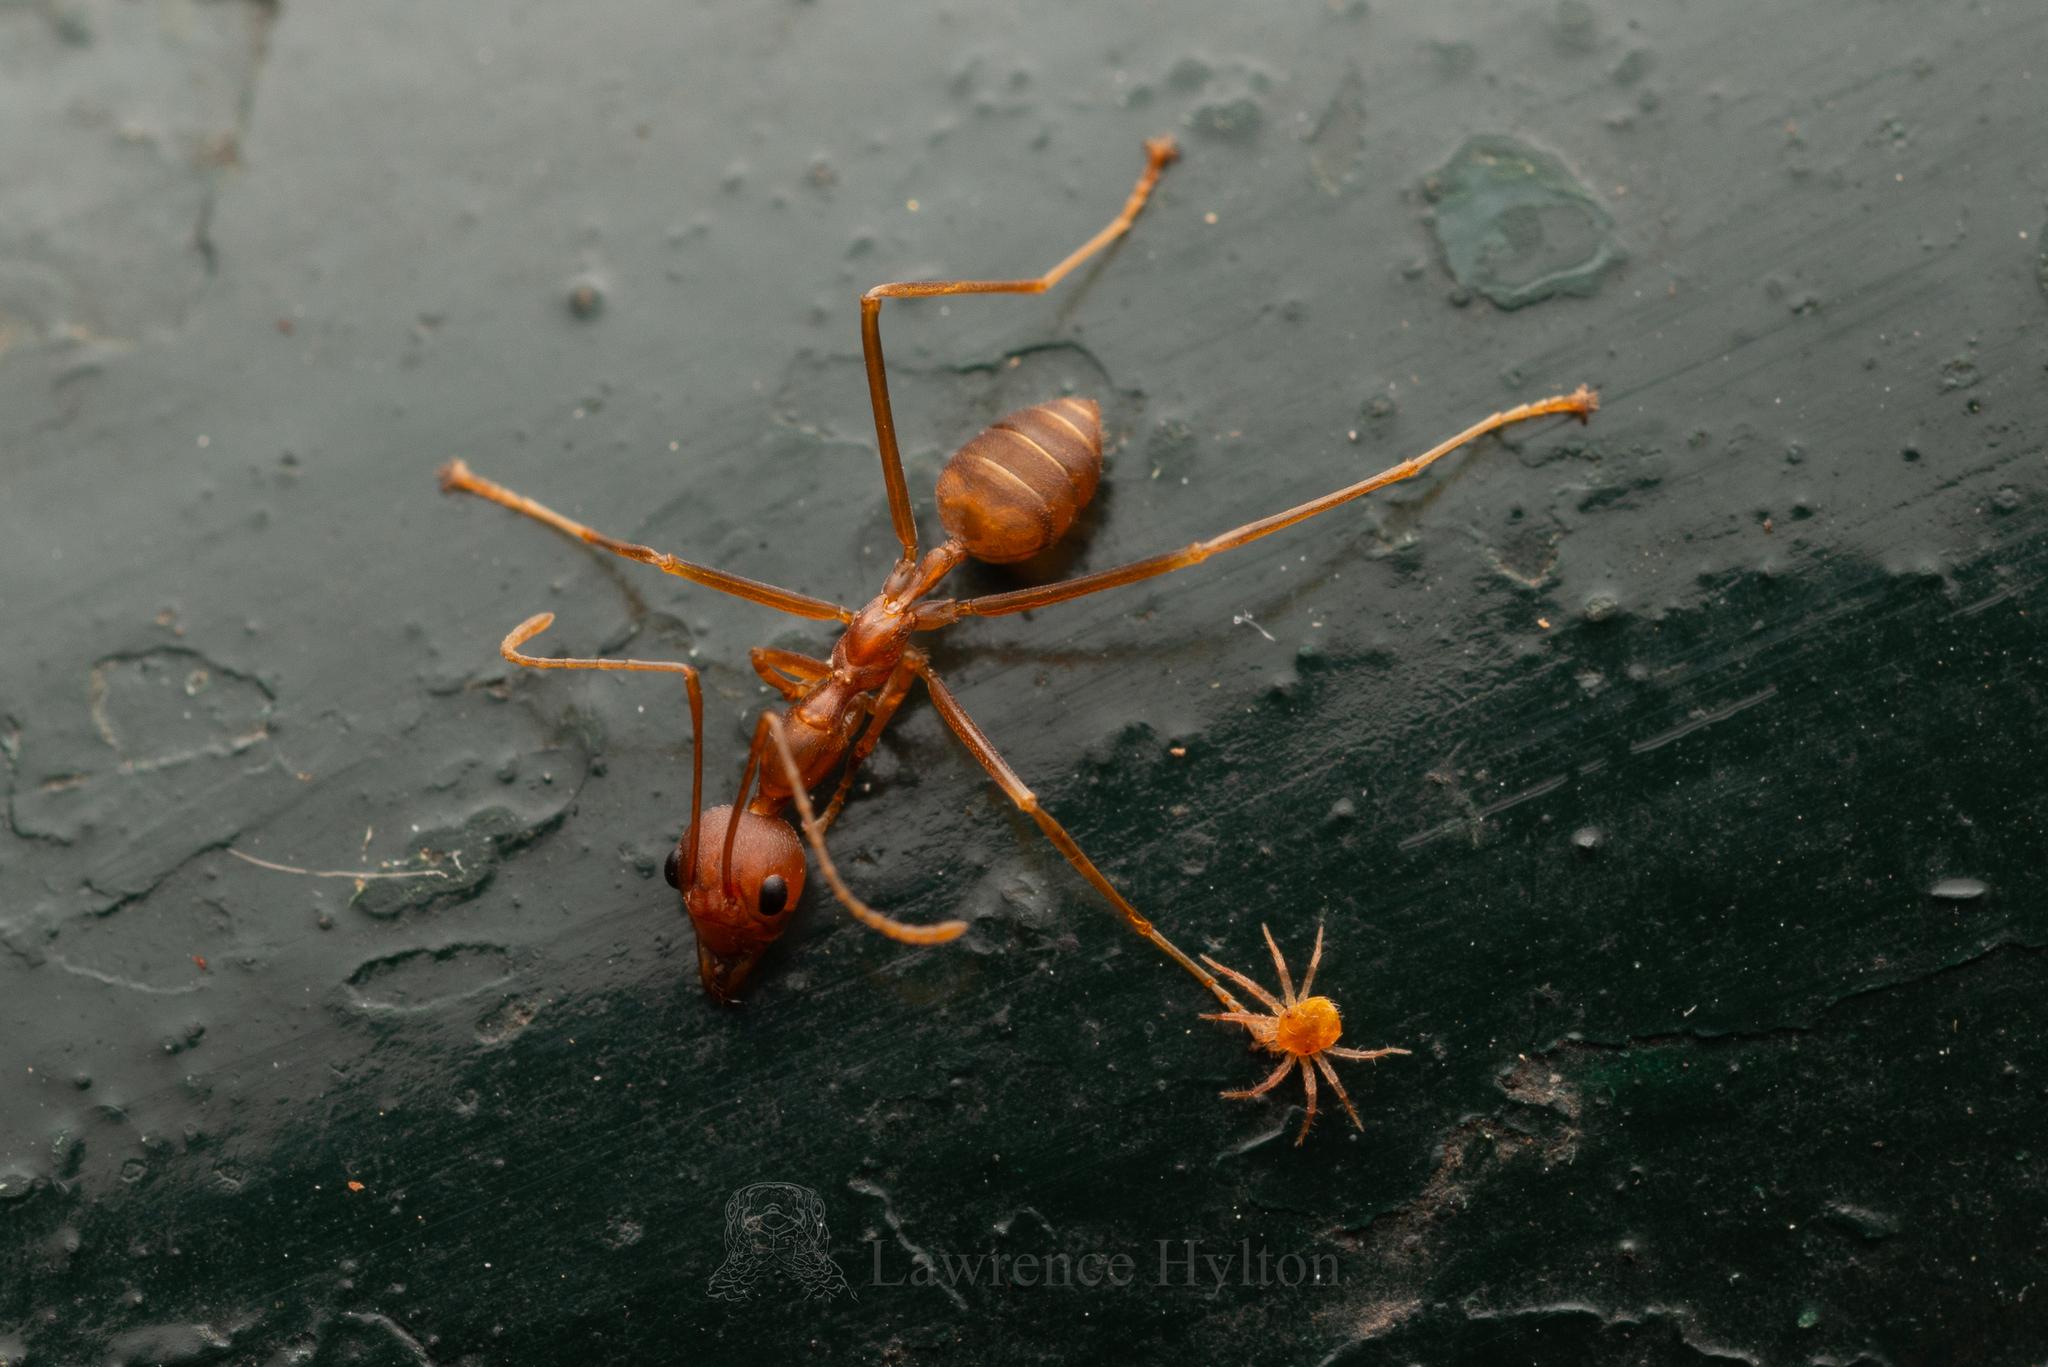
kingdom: Animalia
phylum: Arthropoda
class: Insecta
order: Hymenoptera
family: Formicidae
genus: Oecophylla
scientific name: Oecophylla smaragdina
